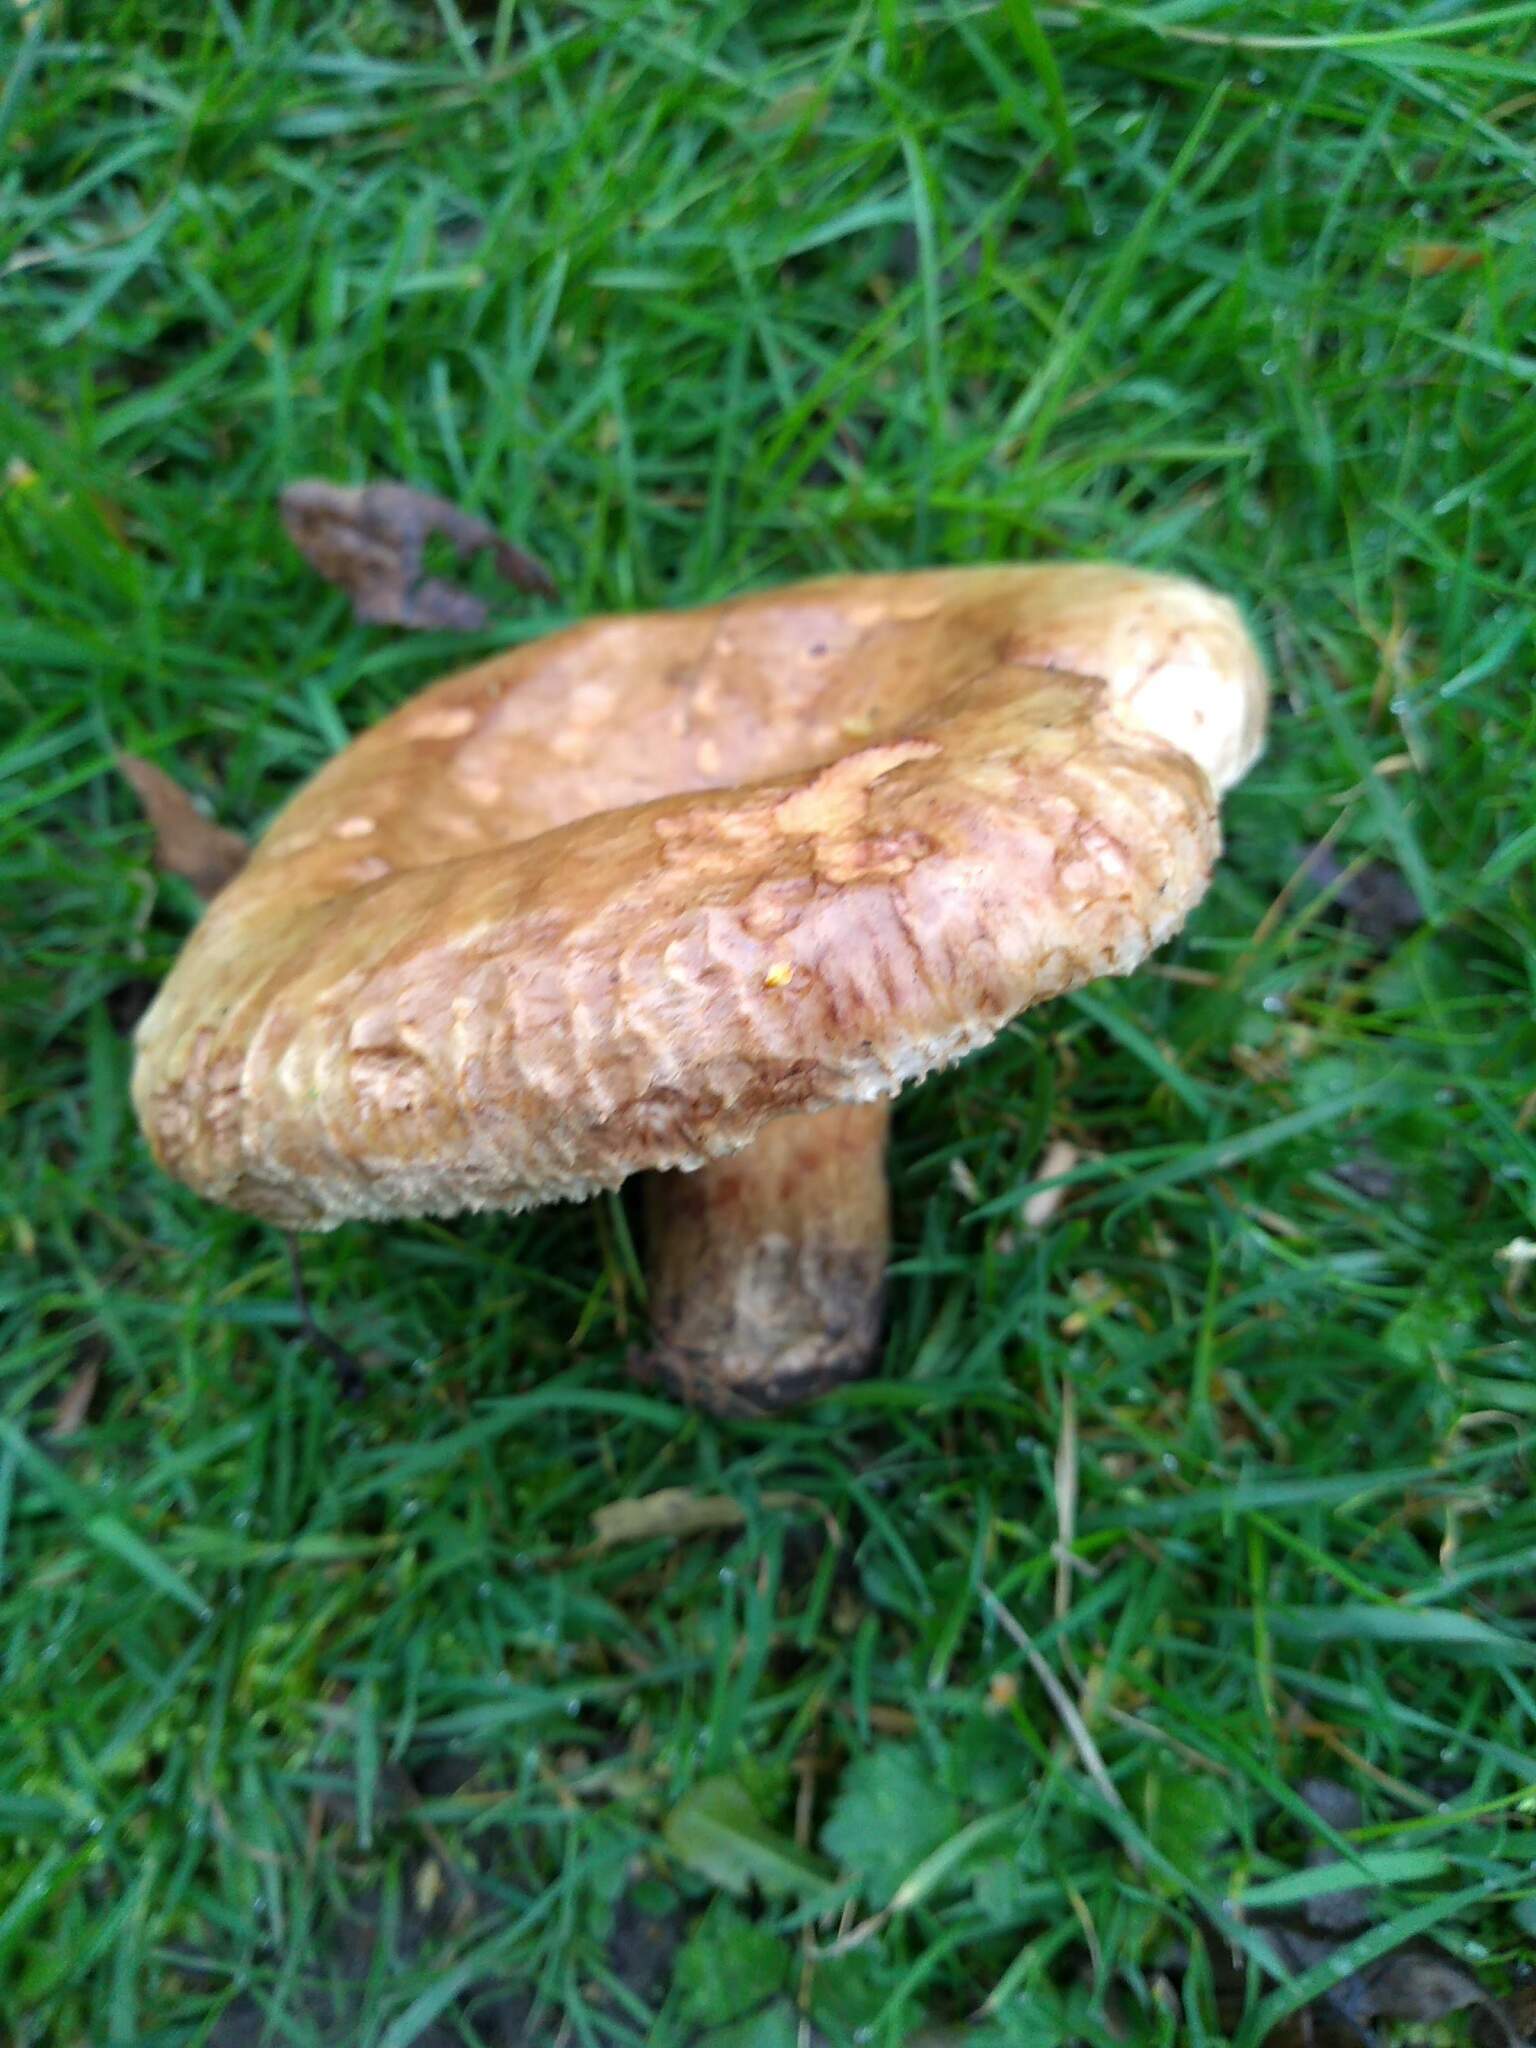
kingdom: Fungi
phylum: Basidiomycota
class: Agaricomycetes
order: Boletales
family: Paxillaceae
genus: Paxillus
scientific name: Paxillus involutus
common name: Brown roll rim
